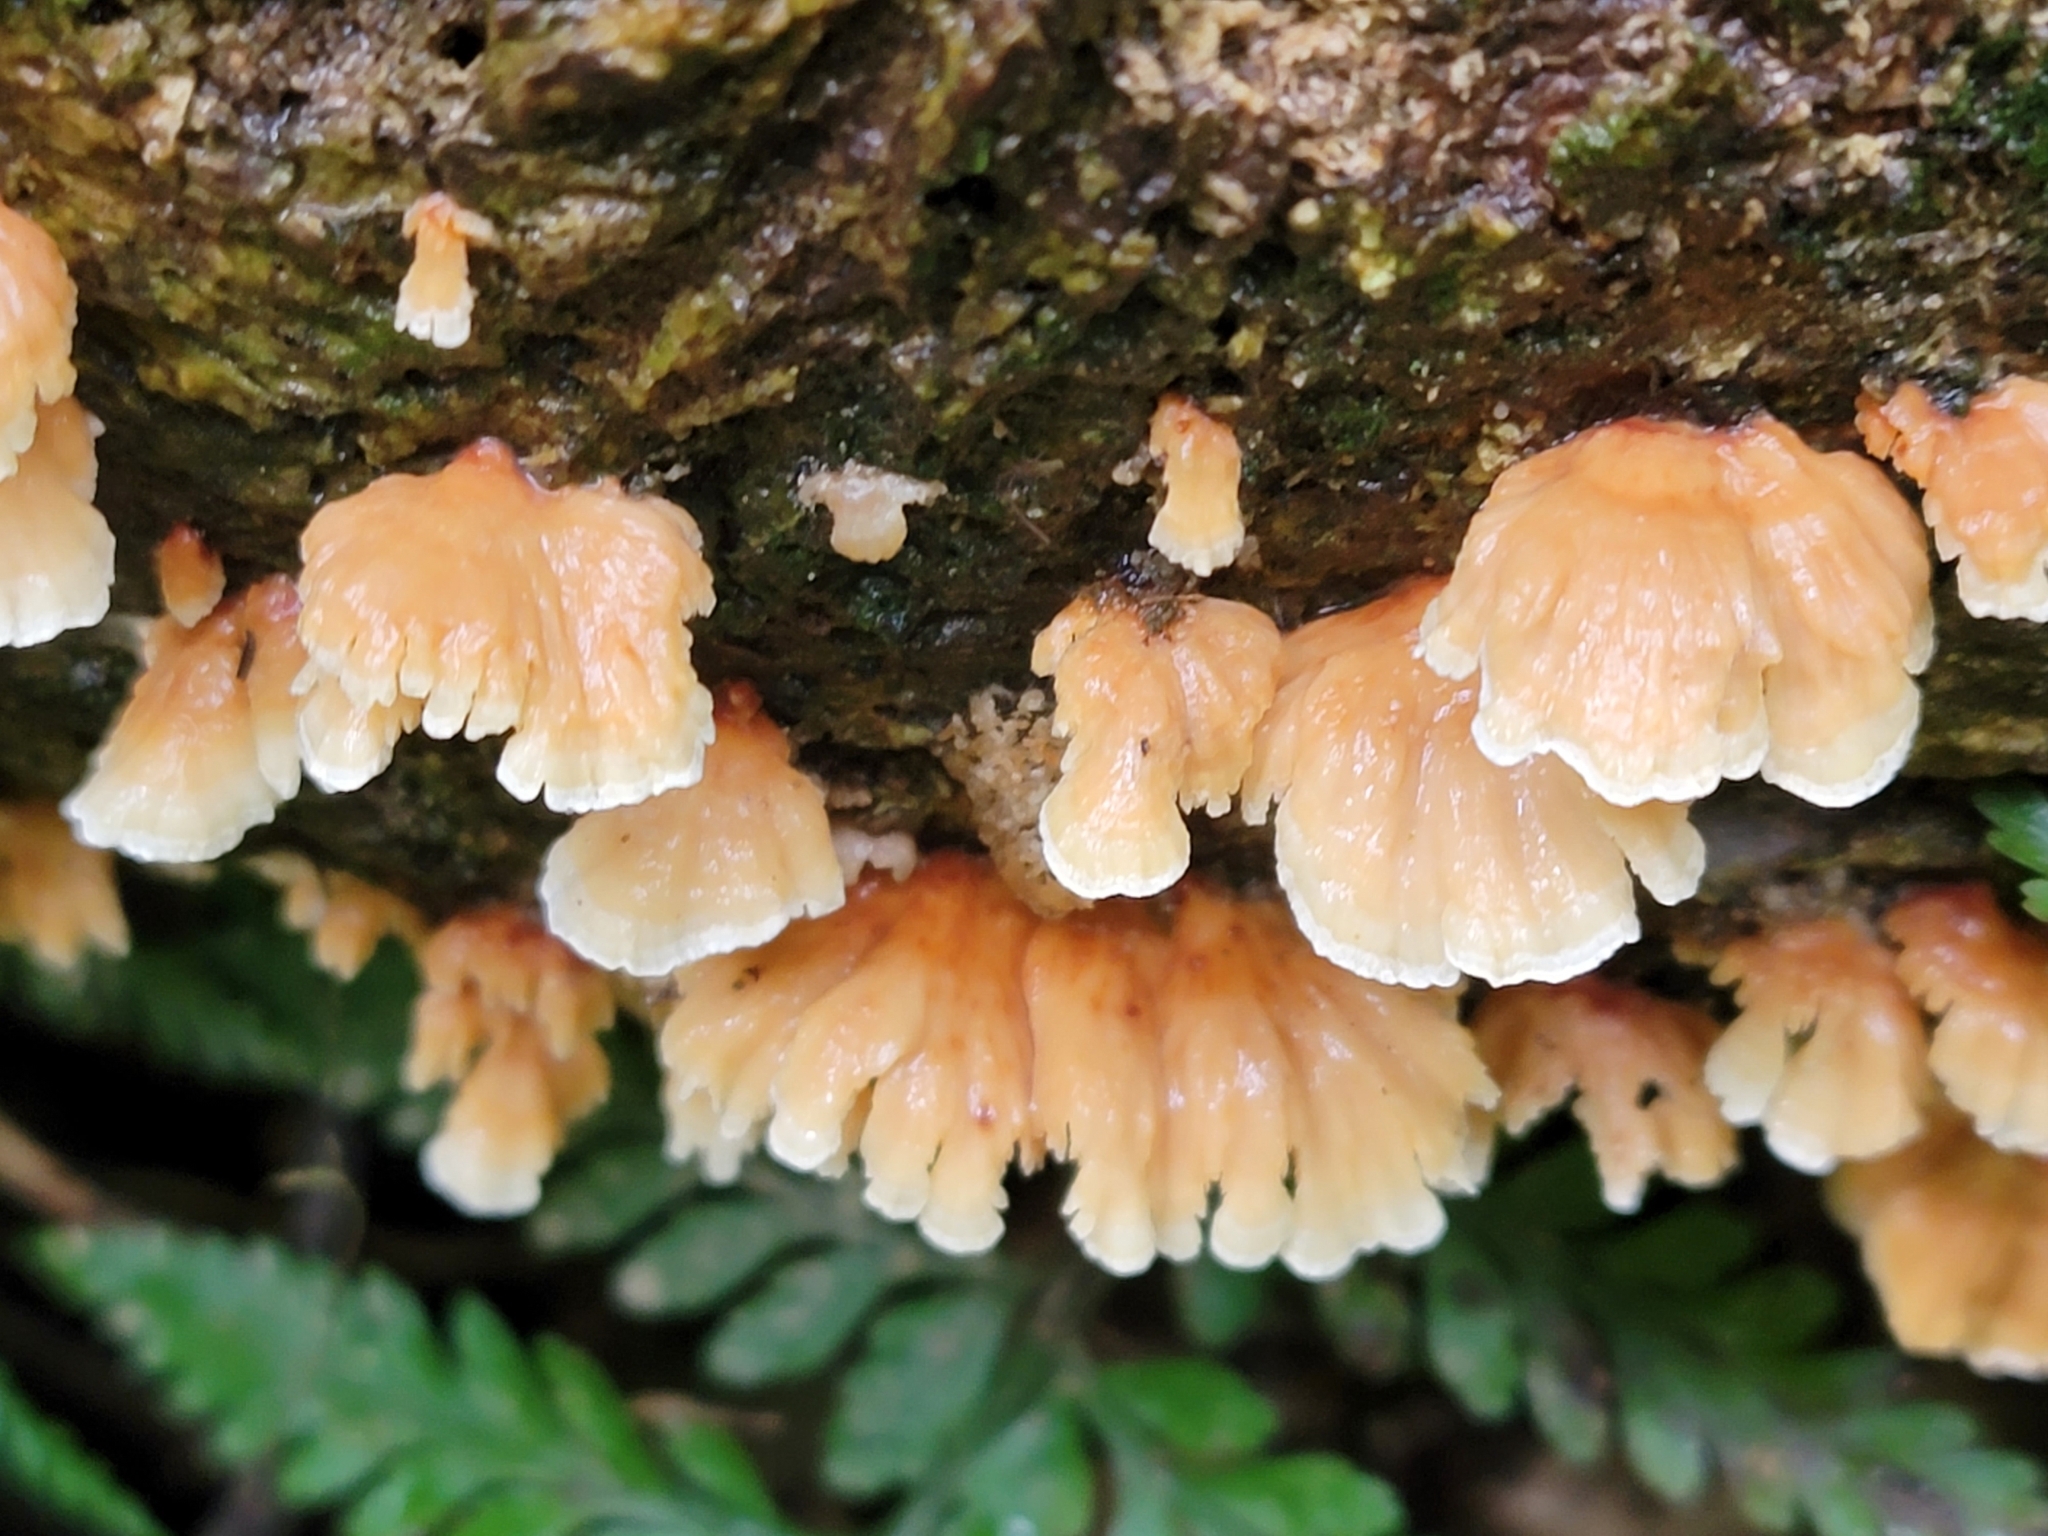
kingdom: Fungi
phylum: Basidiomycota
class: Agaricomycetes
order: Polyporales
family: Cerrenaceae
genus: Cerrena
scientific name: Cerrena zonata
